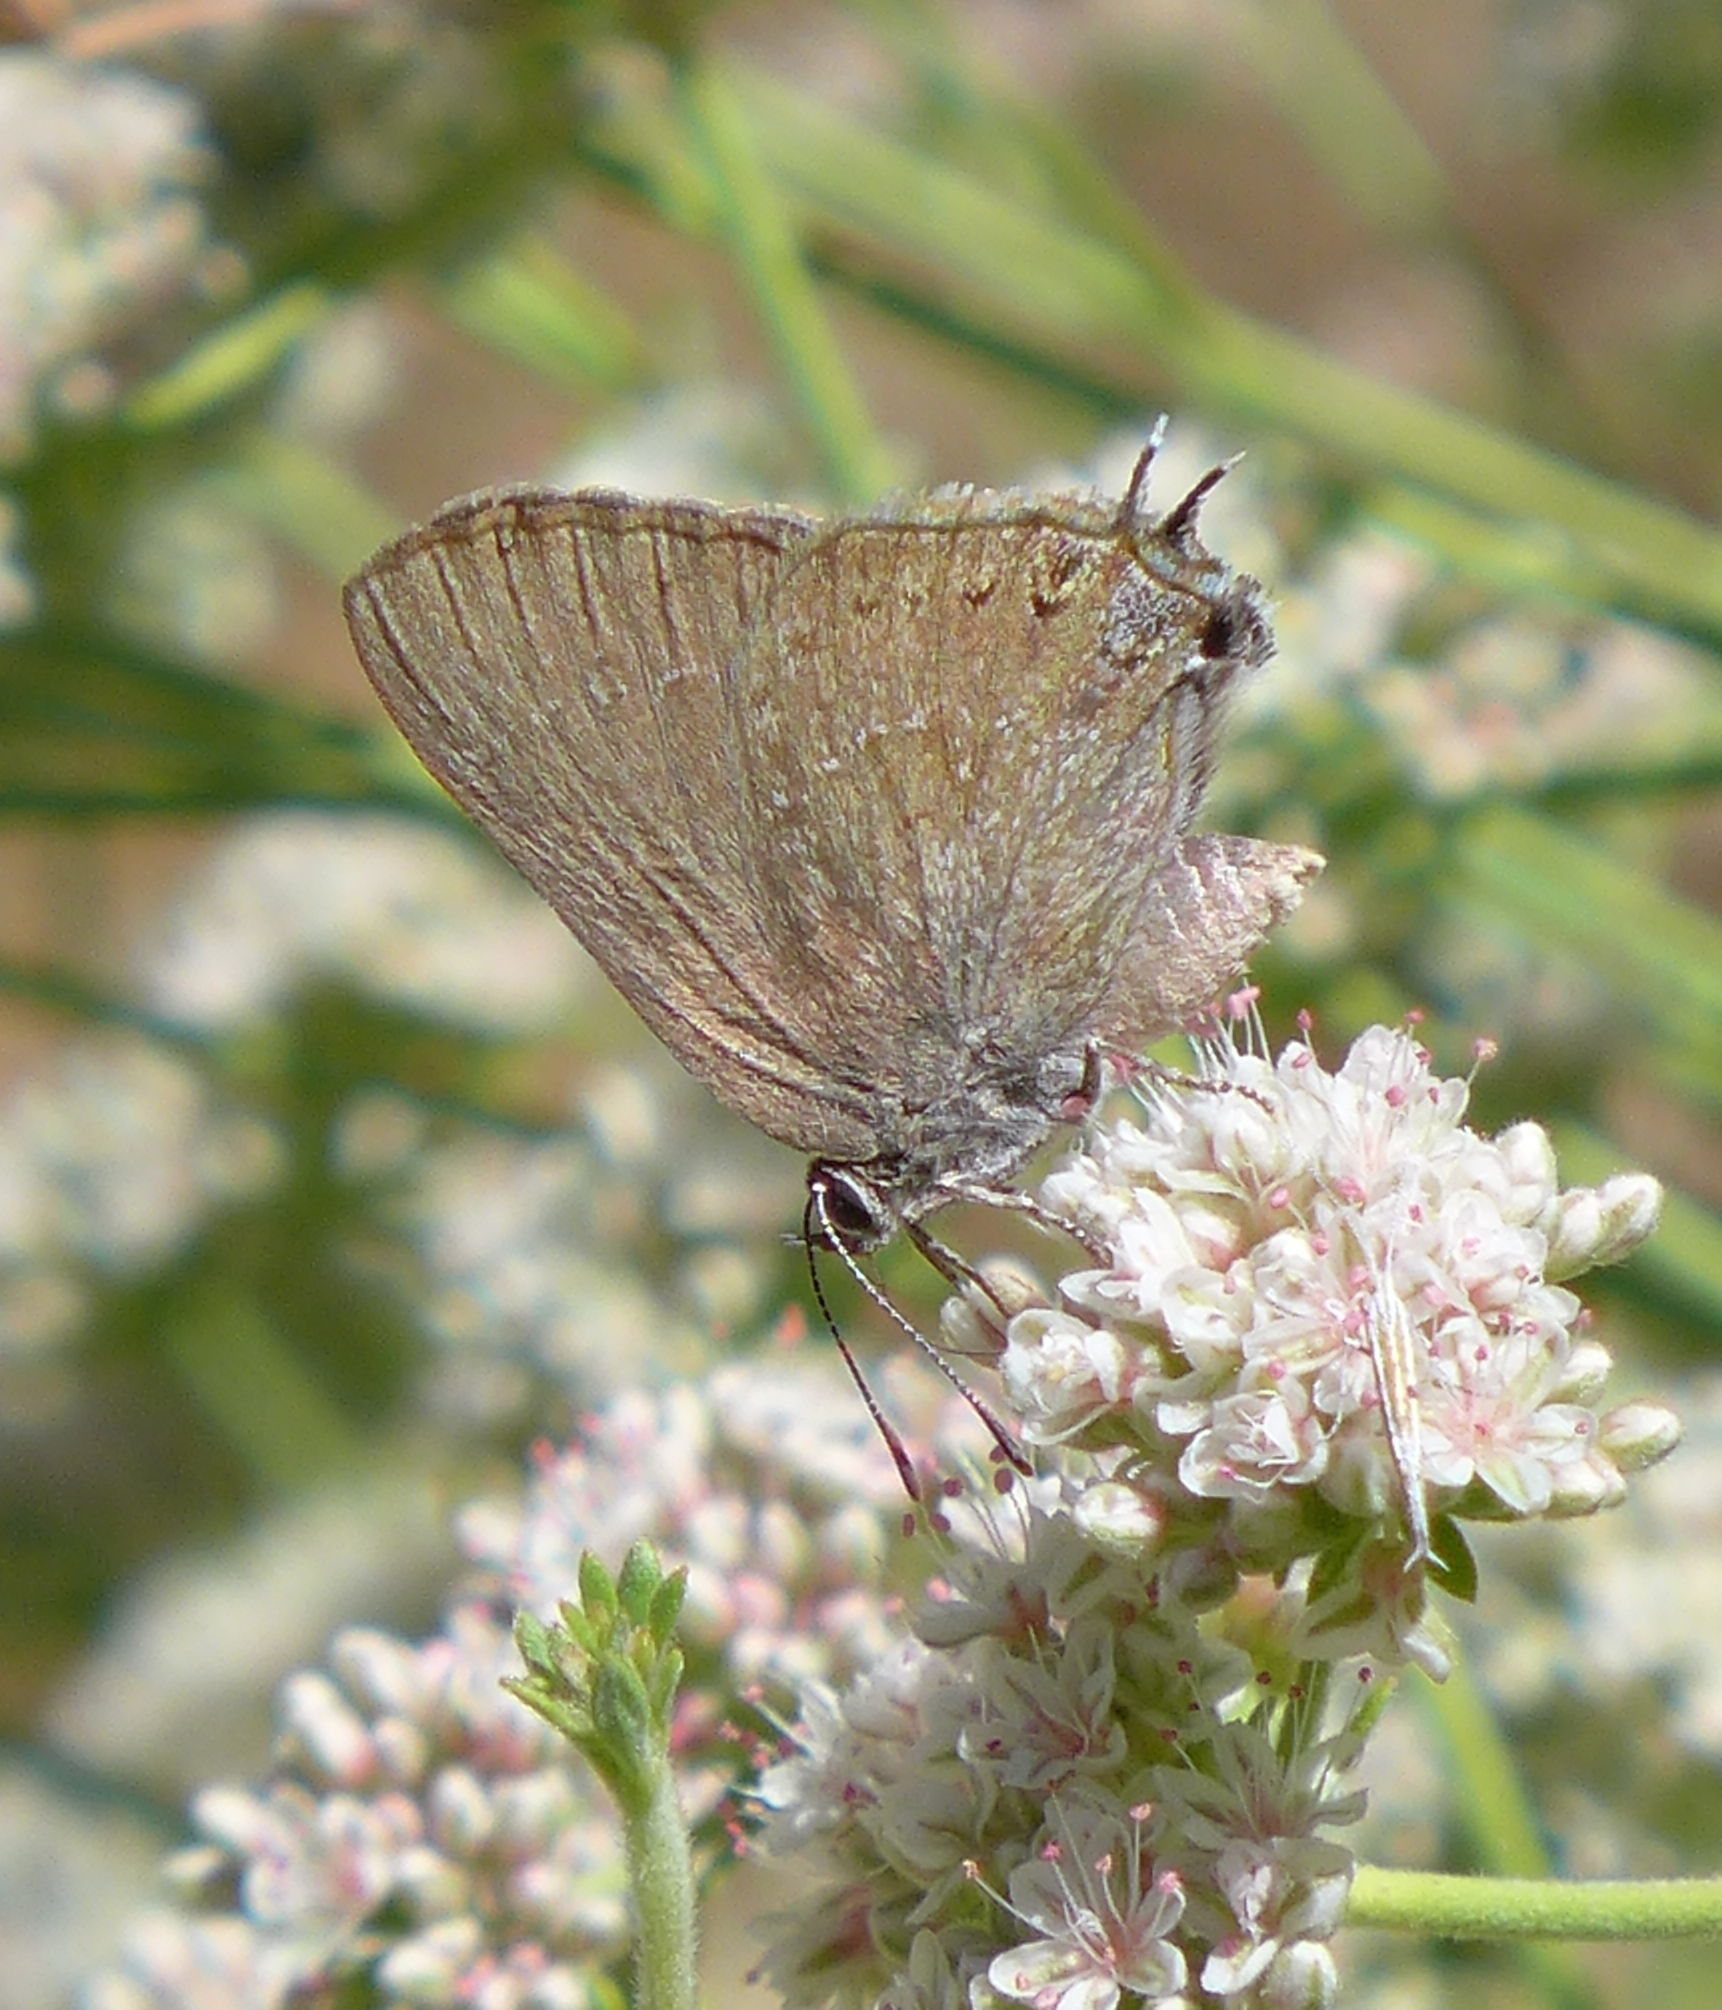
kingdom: Animalia
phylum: Arthropoda
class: Insecta
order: Lepidoptera
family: Lycaenidae
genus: Thecla
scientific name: Thecla tetra
